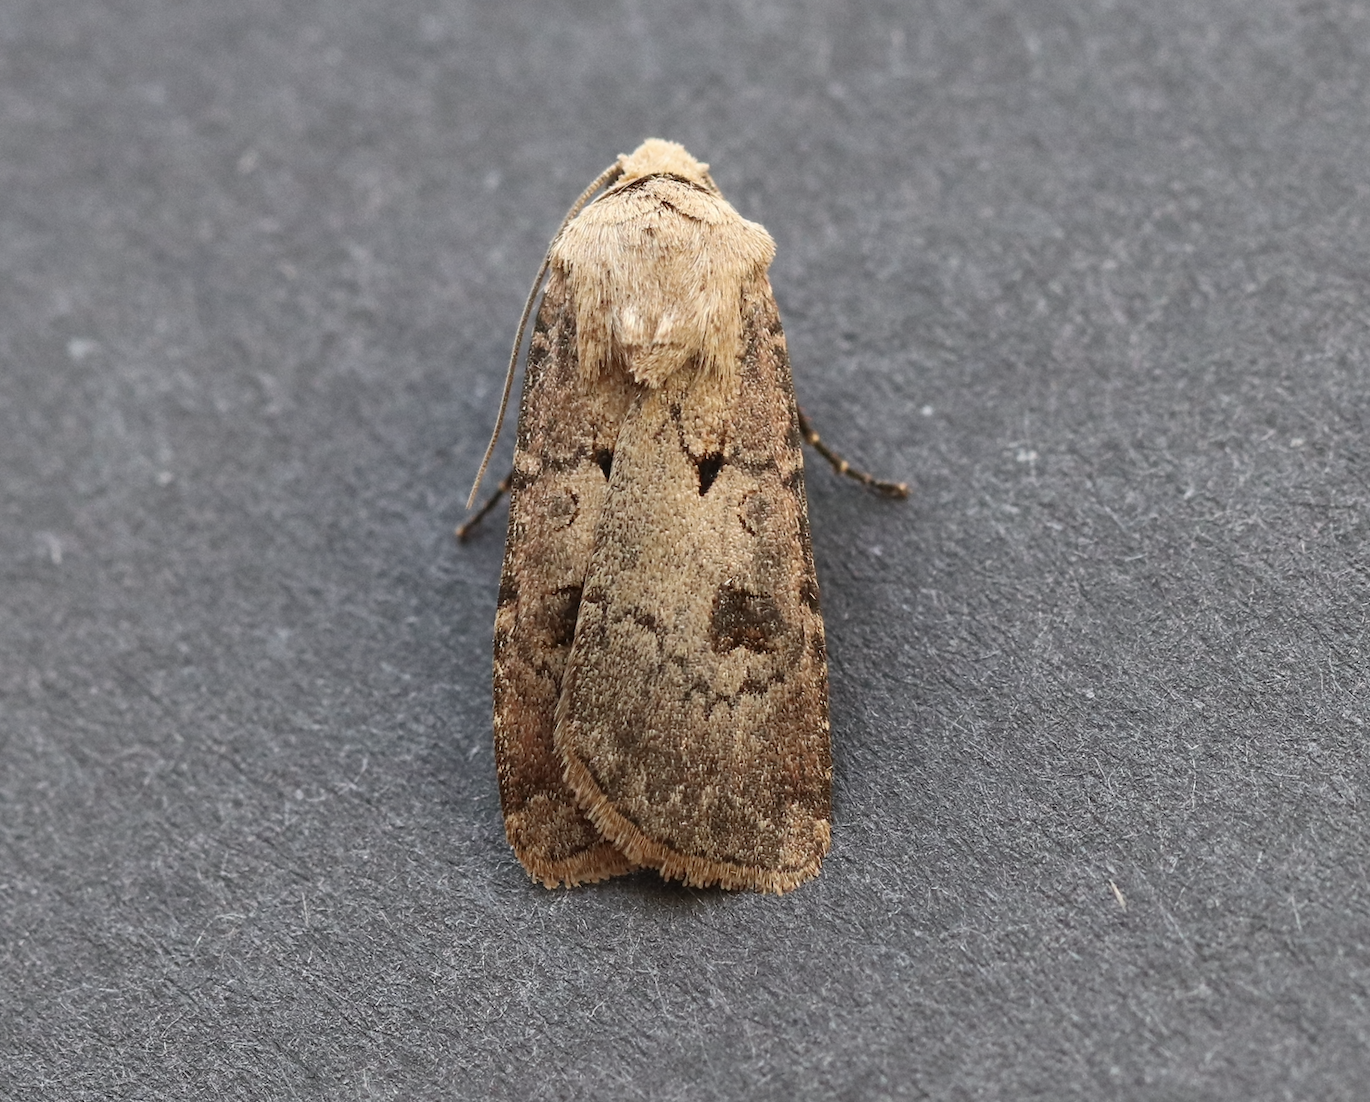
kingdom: Animalia
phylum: Arthropoda
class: Insecta
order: Lepidoptera
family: Noctuidae
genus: Agrotis
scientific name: Agrotis exclamationis
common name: Heart and dart
